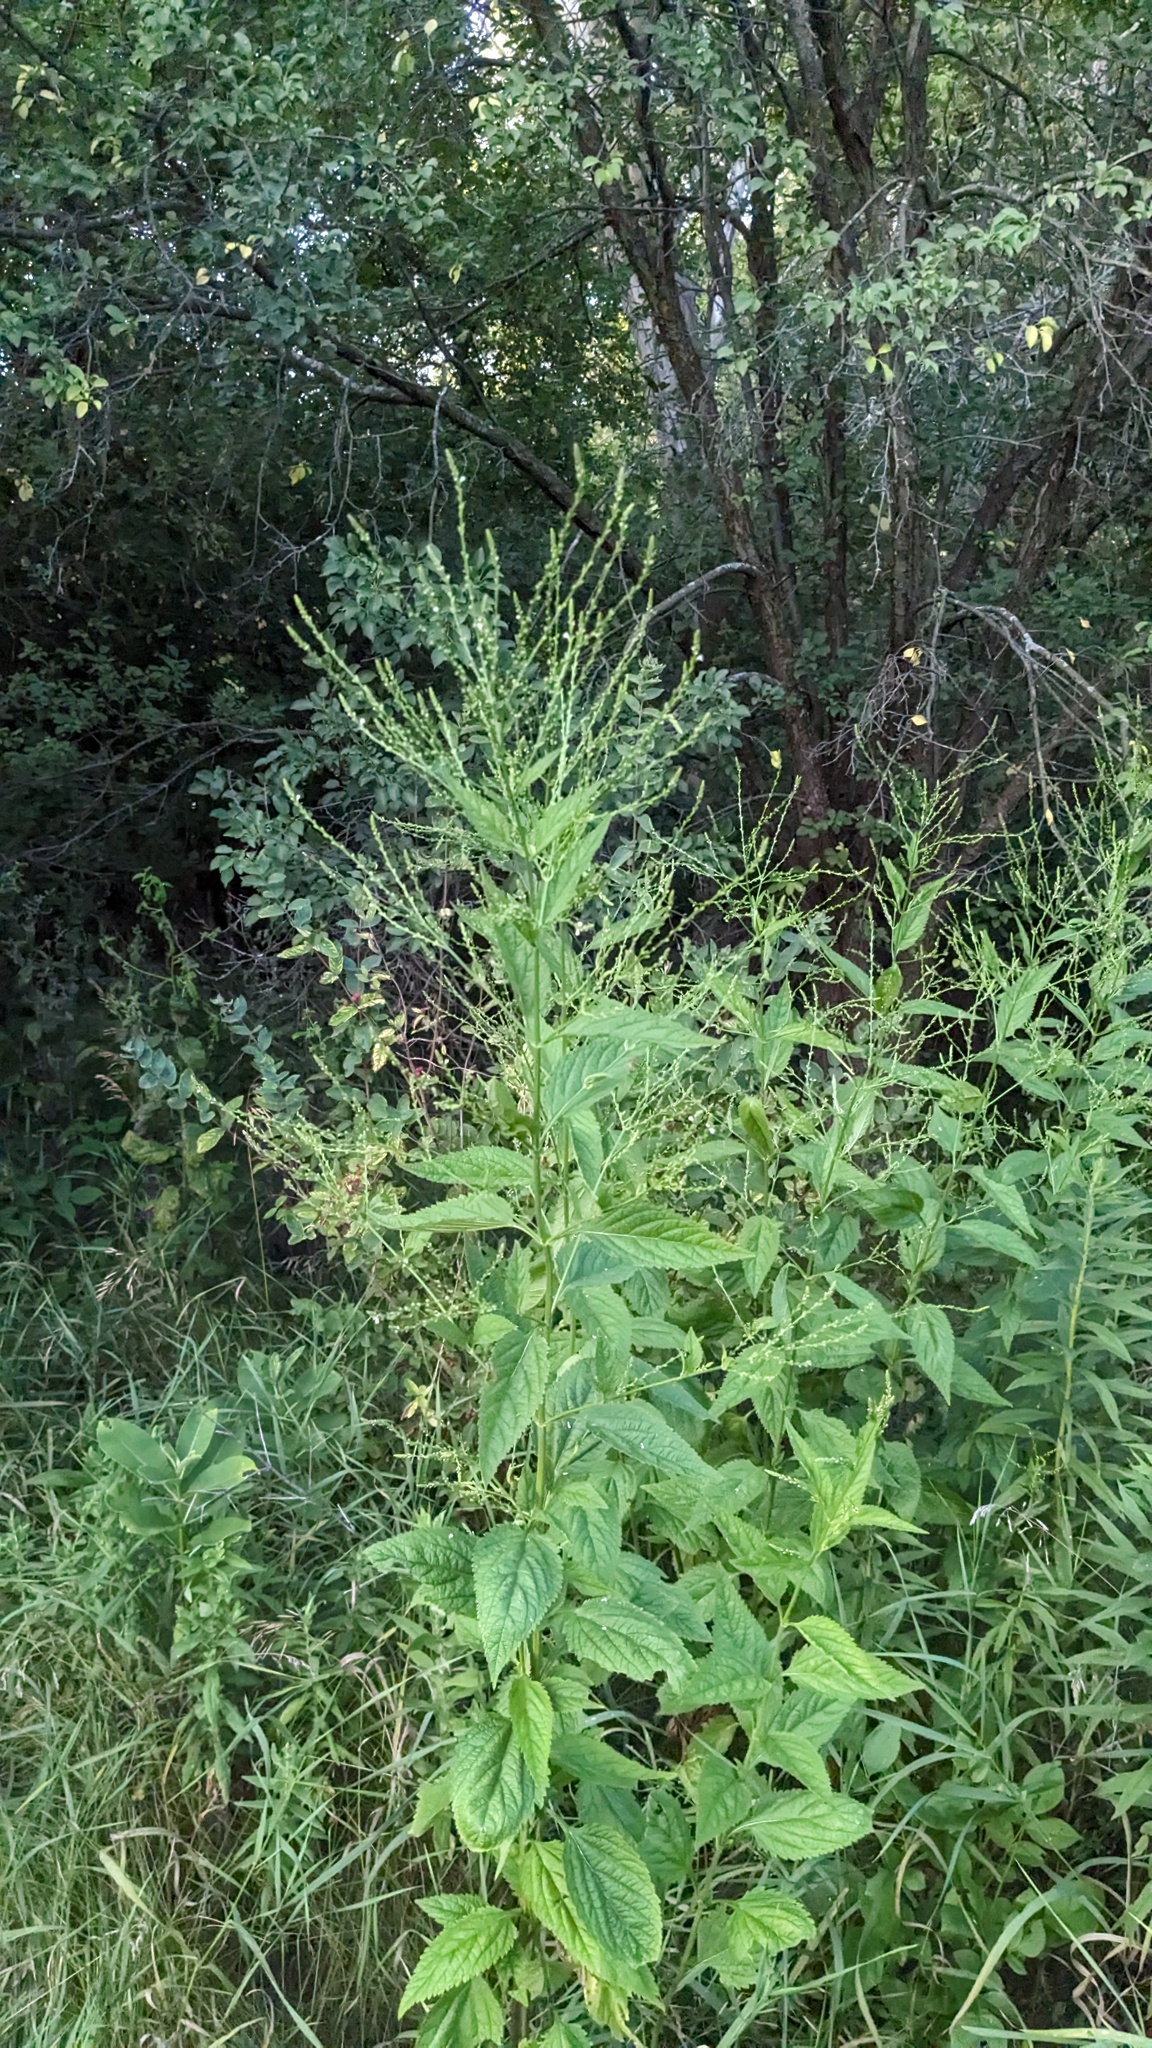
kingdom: Plantae
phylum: Tracheophyta
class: Magnoliopsida
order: Lamiales
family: Verbenaceae
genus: Verbena
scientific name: Verbena urticifolia
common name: Nettle-leaved vervain
